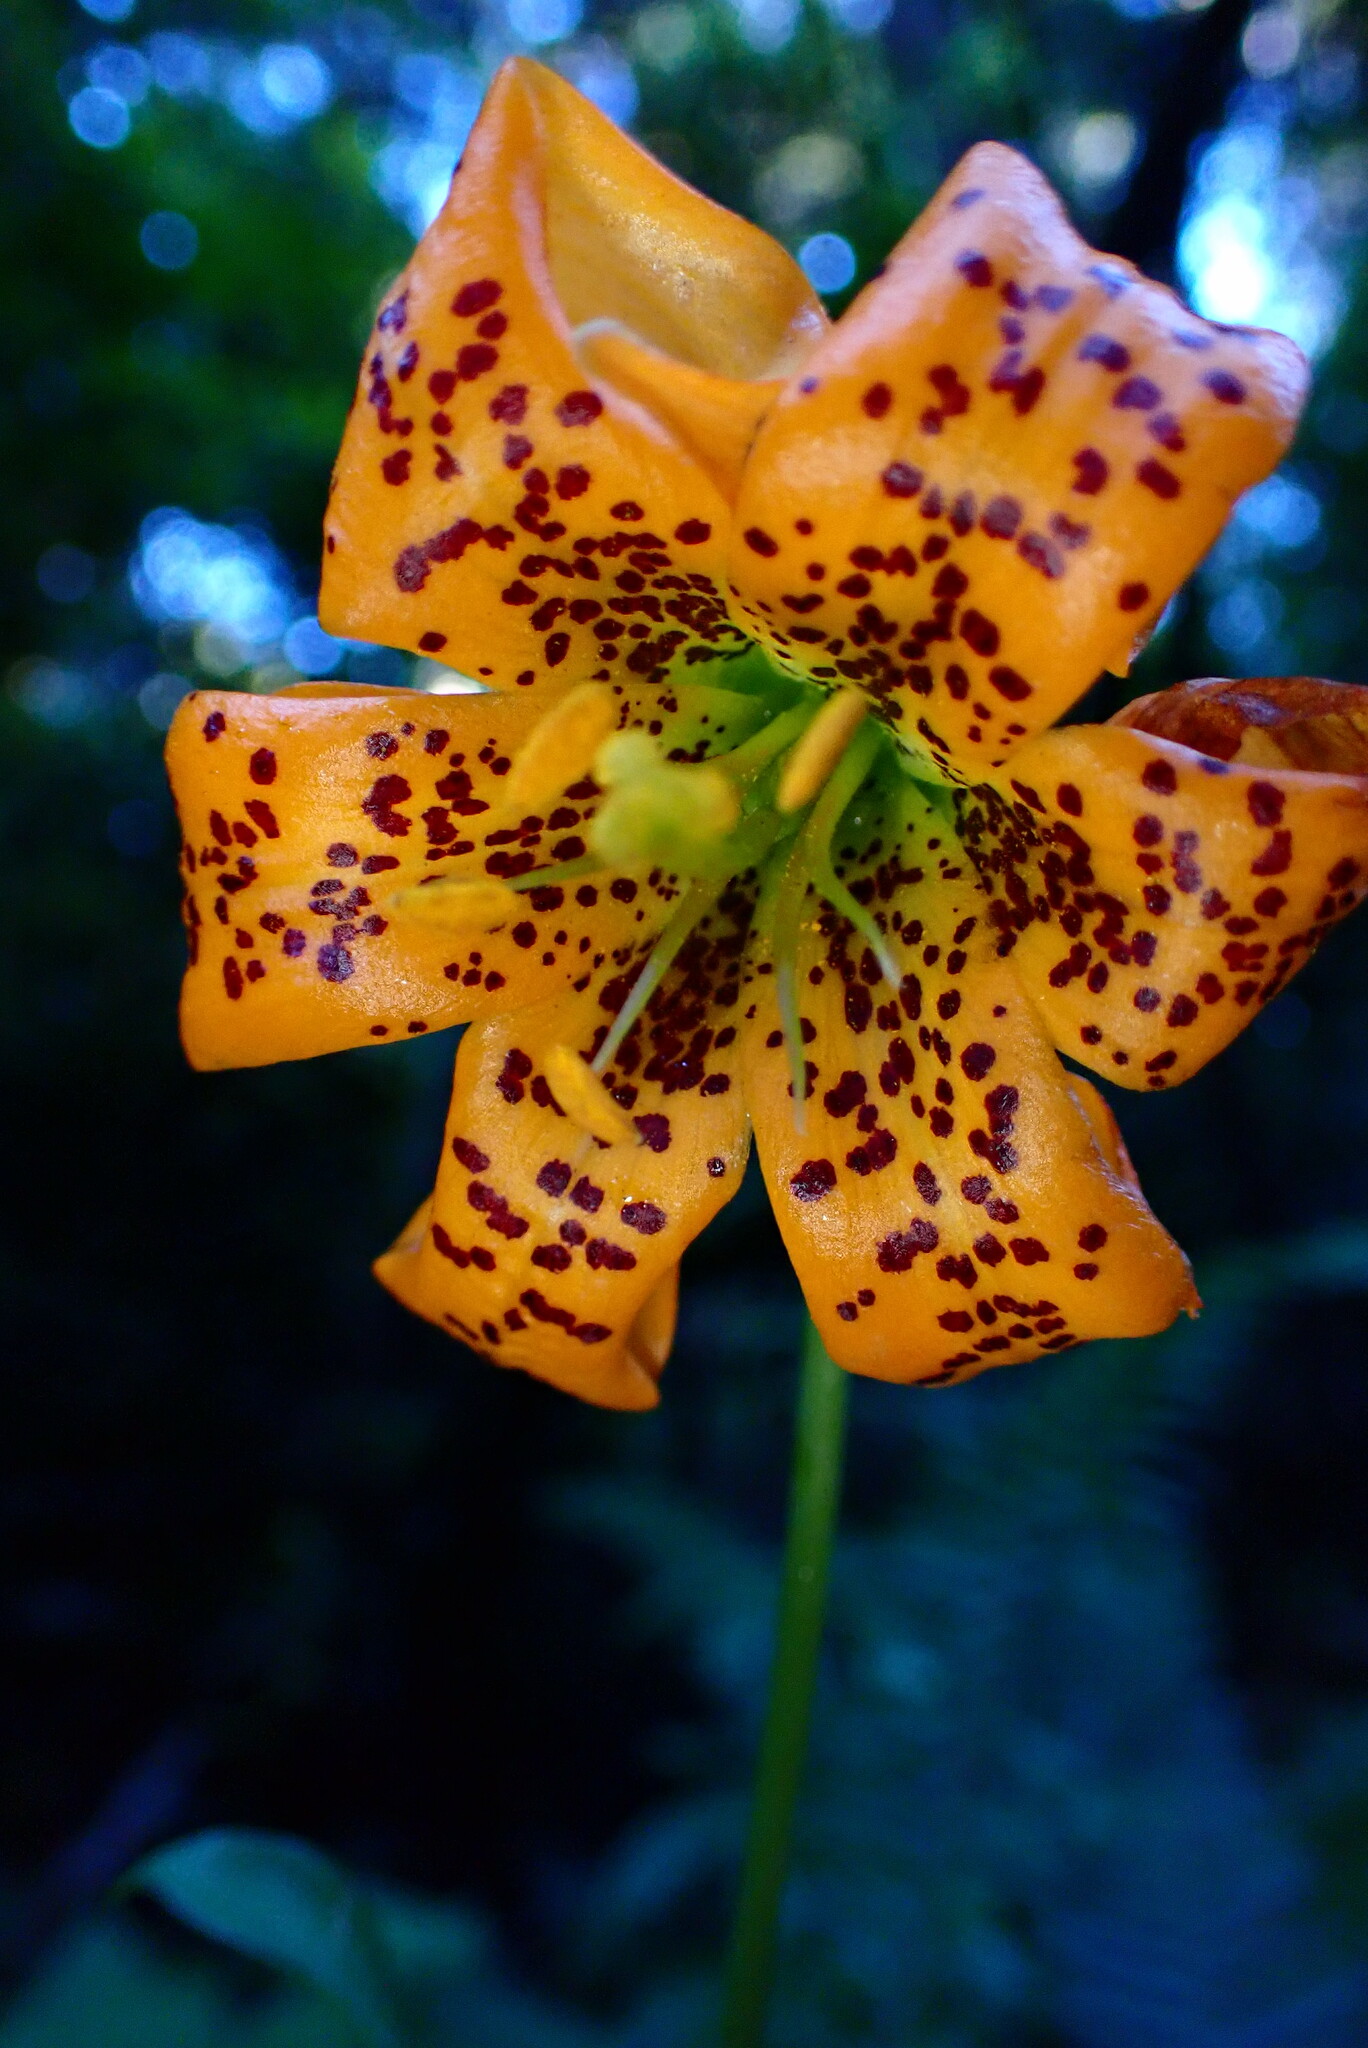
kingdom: Plantae
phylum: Tracheophyta
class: Liliopsida
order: Liliales
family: Liliaceae
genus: Lilium
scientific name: Lilium columbianum
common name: Columbia lily
